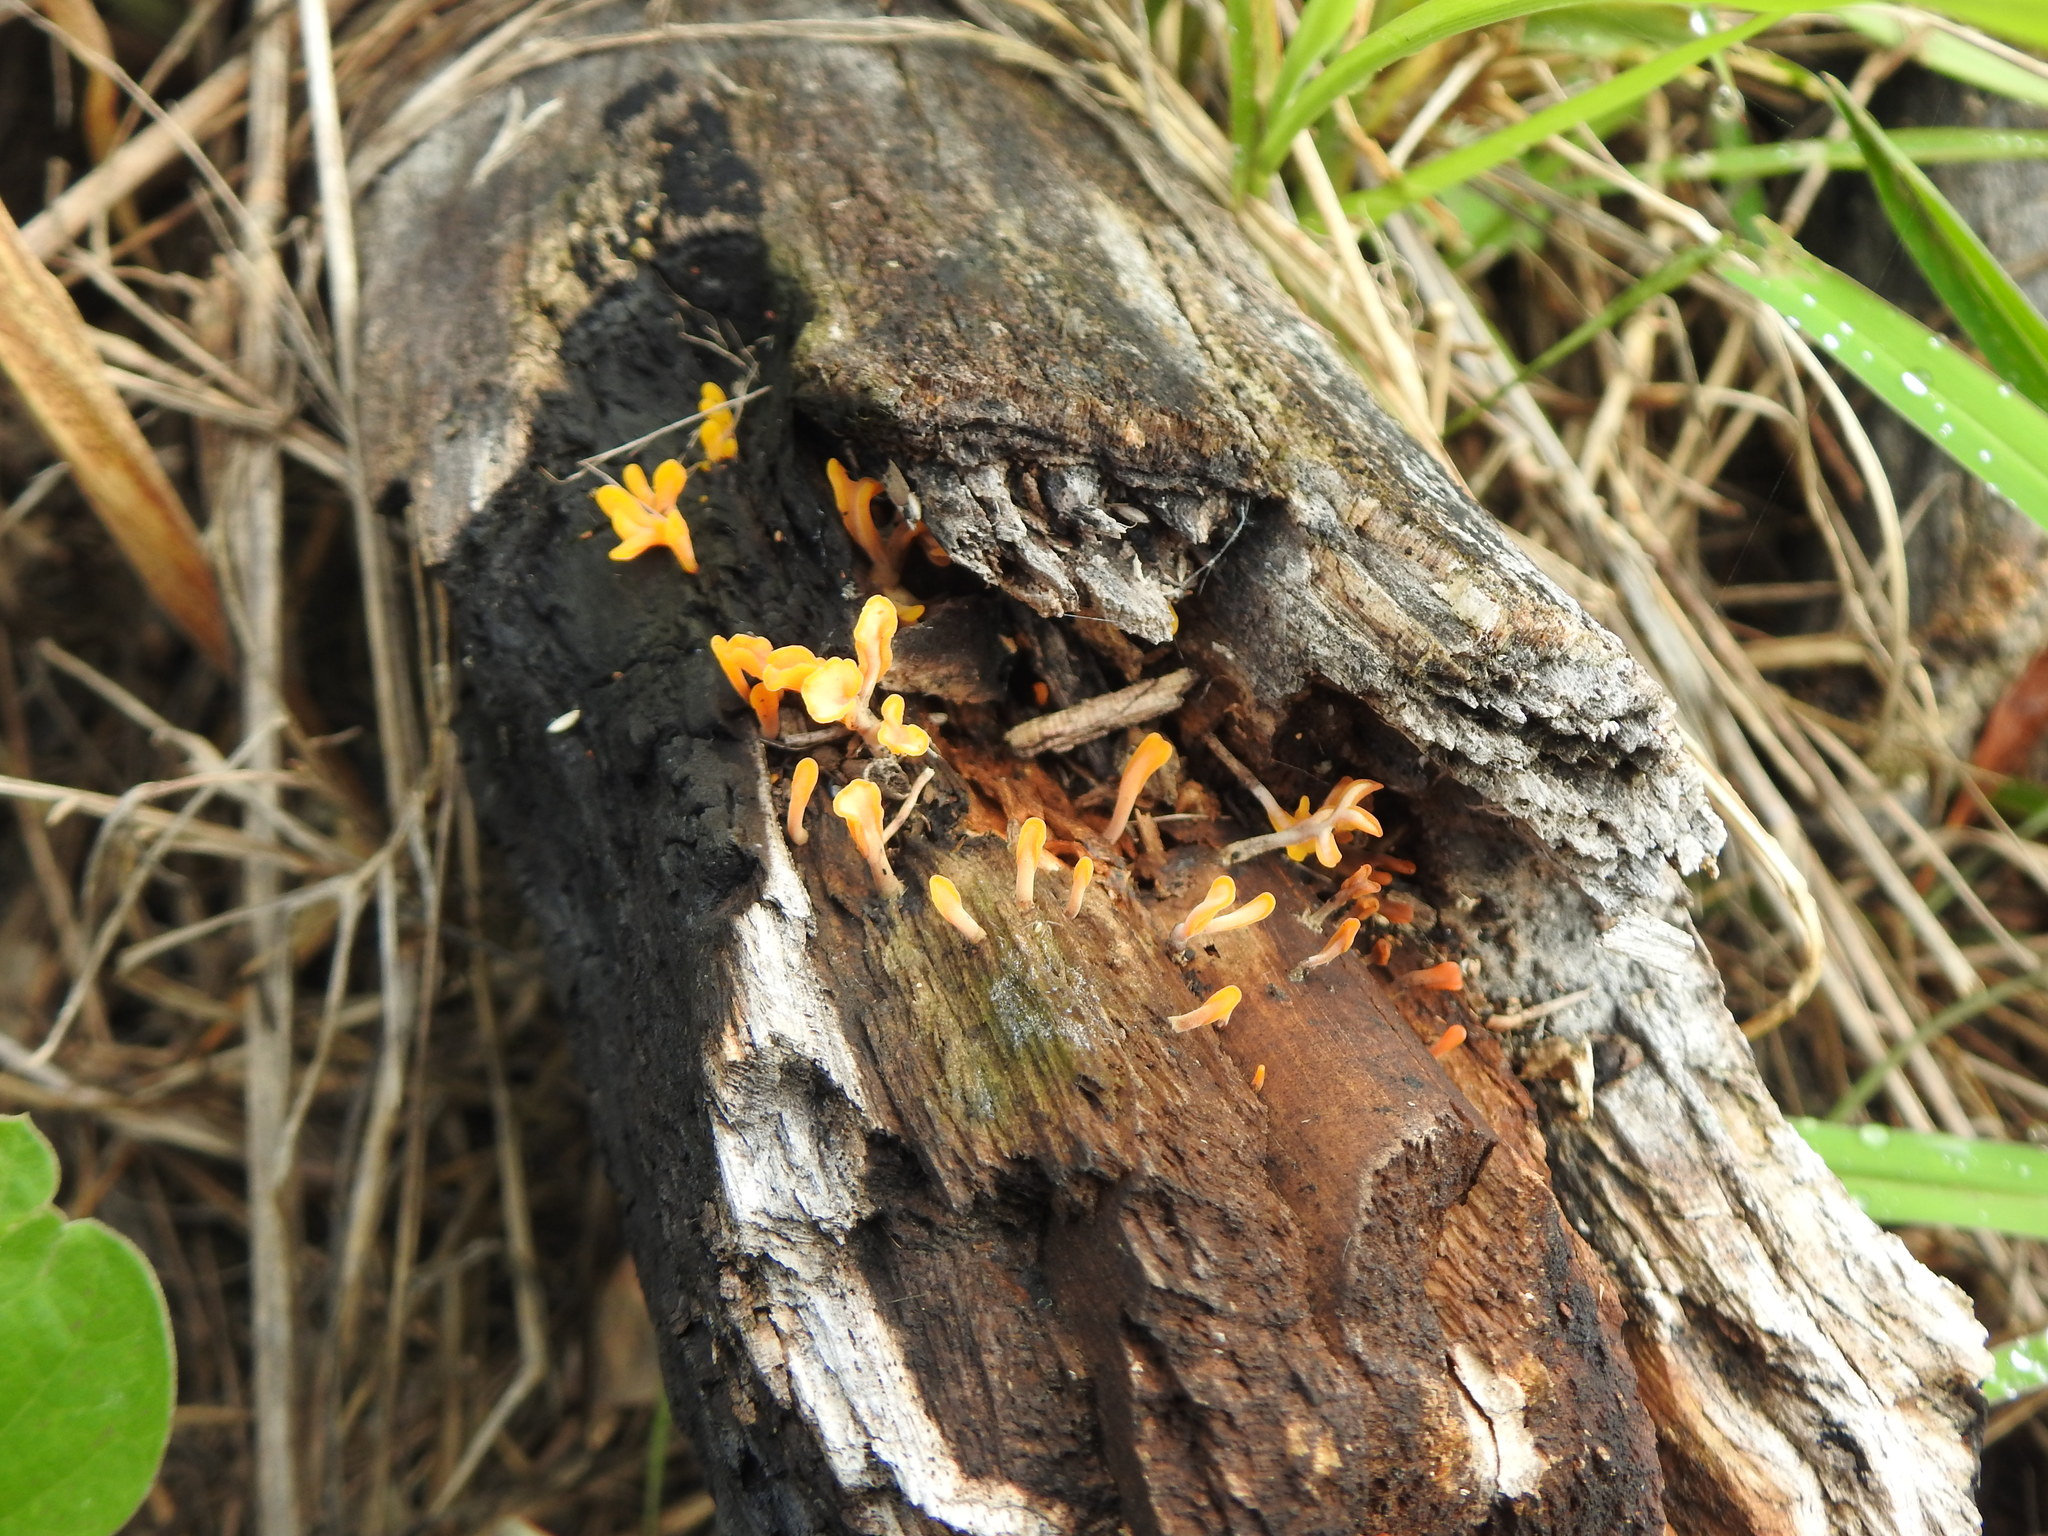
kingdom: Fungi
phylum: Basidiomycota
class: Dacrymycetes
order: Dacrymycetales
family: Dacrymycetaceae
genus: Dacrymyces
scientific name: Dacrymyces spathularius
